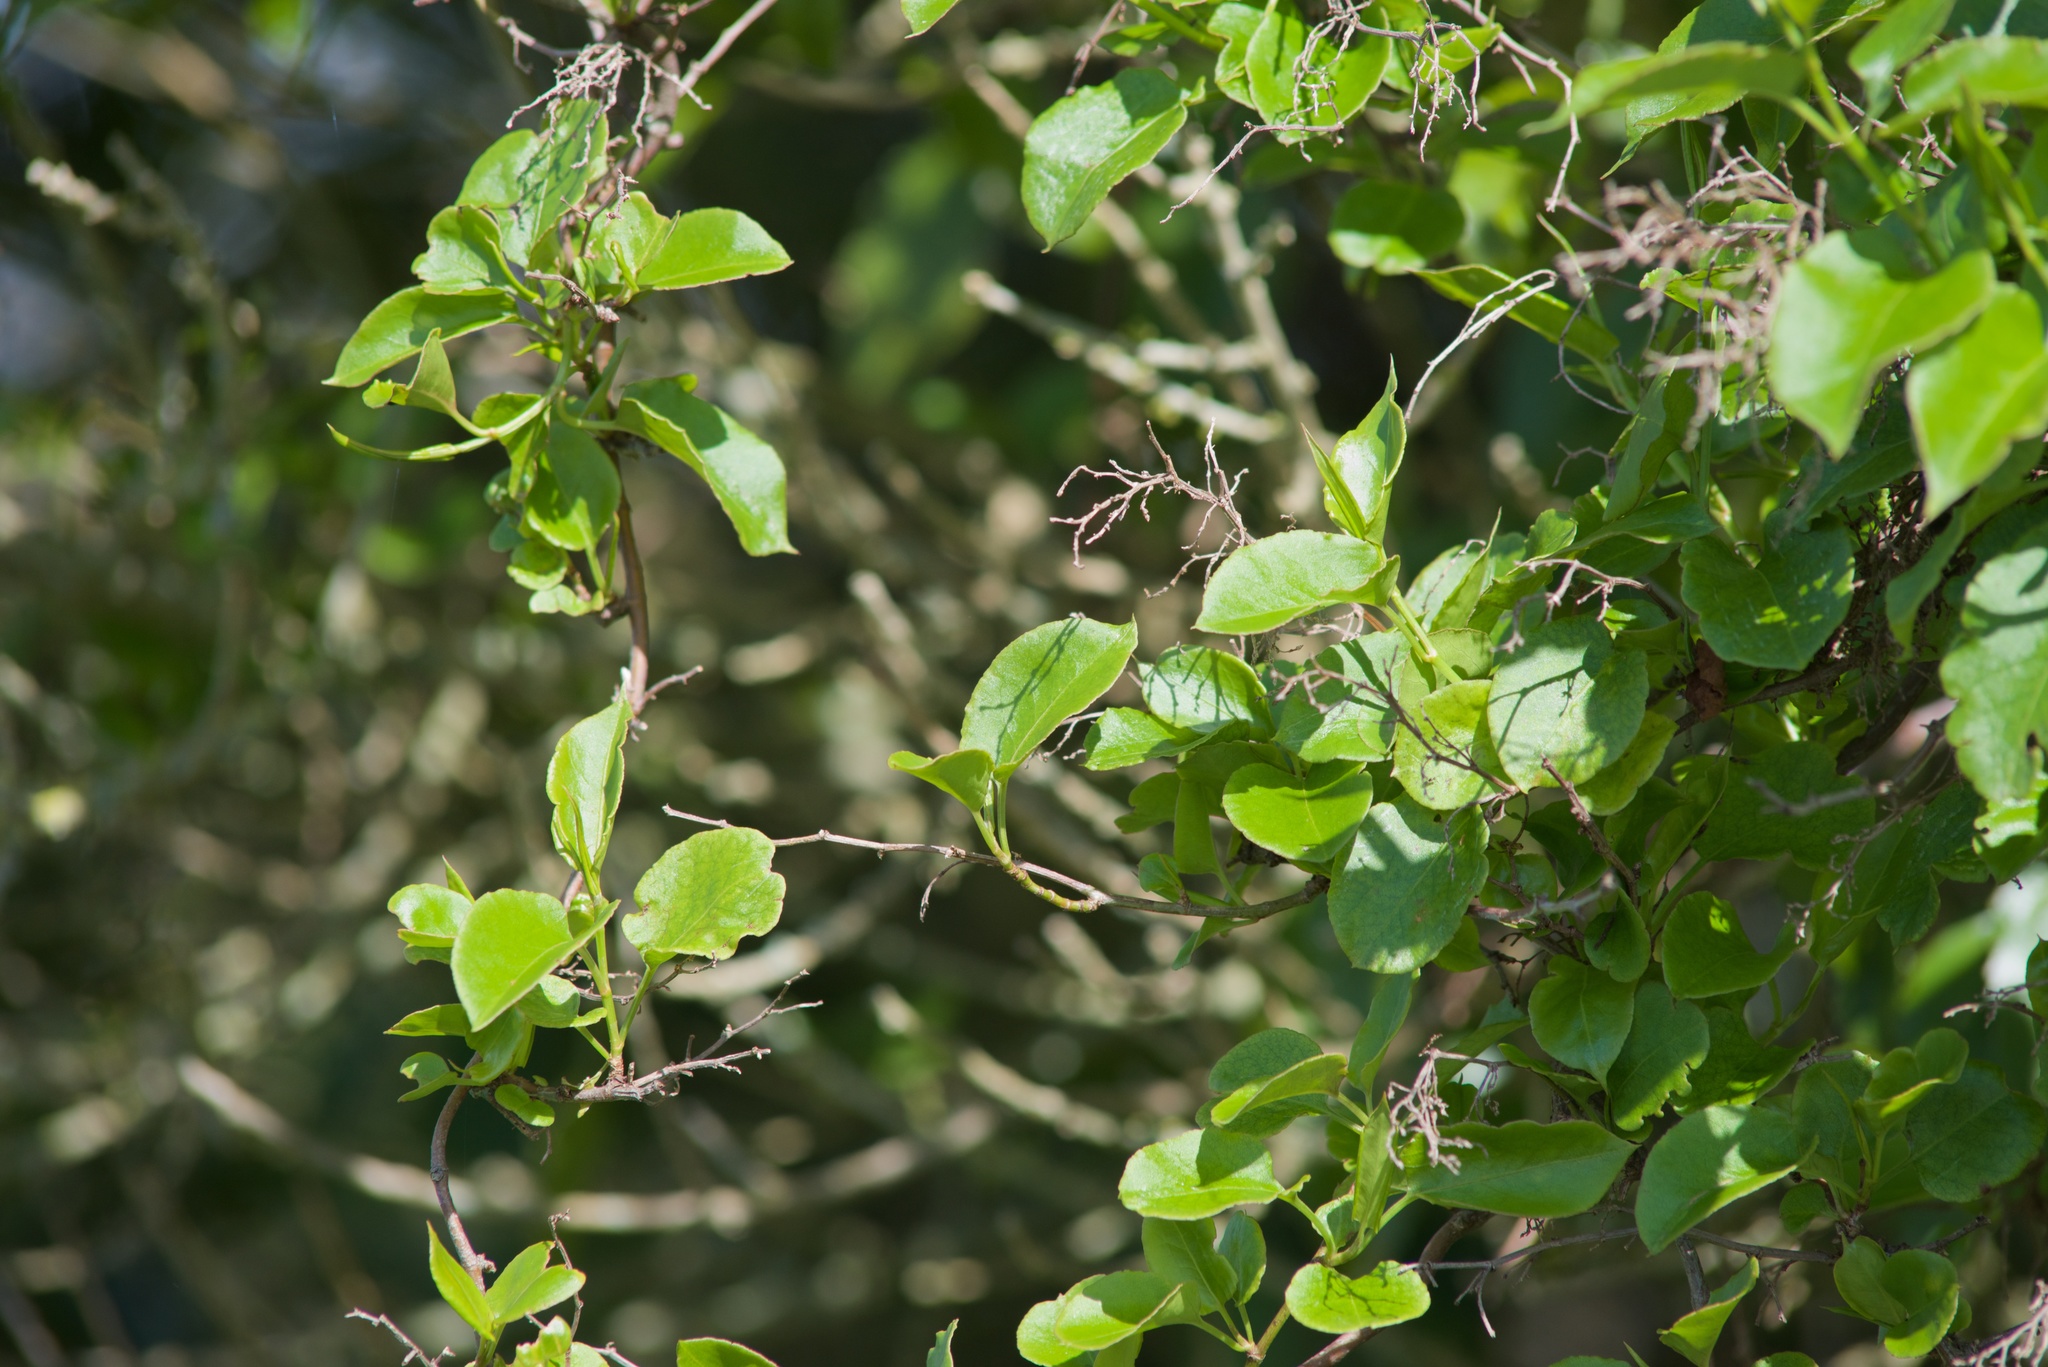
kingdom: Plantae
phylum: Tracheophyta
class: Magnoliopsida
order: Caryophyllales
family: Polygonaceae
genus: Muehlenbeckia
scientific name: Muehlenbeckia australis
